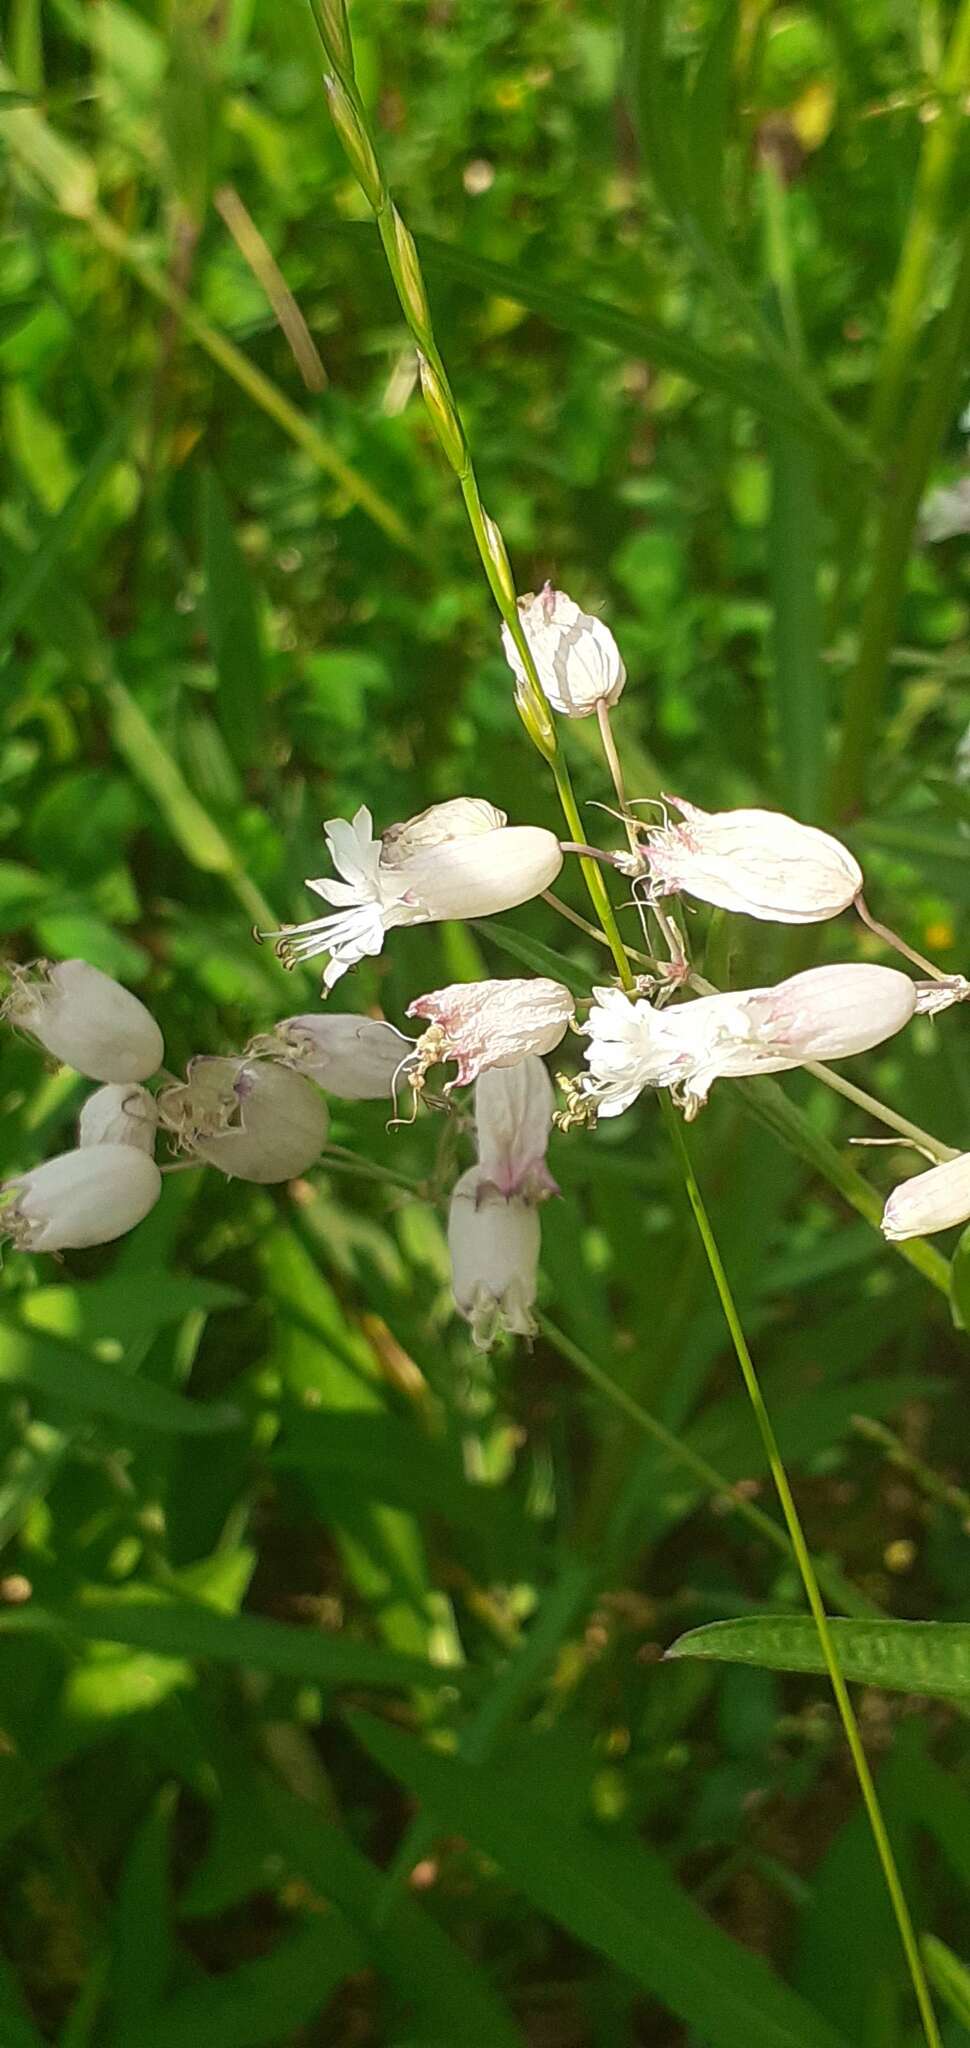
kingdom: Plantae
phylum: Tracheophyta
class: Magnoliopsida
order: Caryophyllales
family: Caryophyllaceae
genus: Silene
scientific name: Silene vulgaris
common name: Bladder campion
